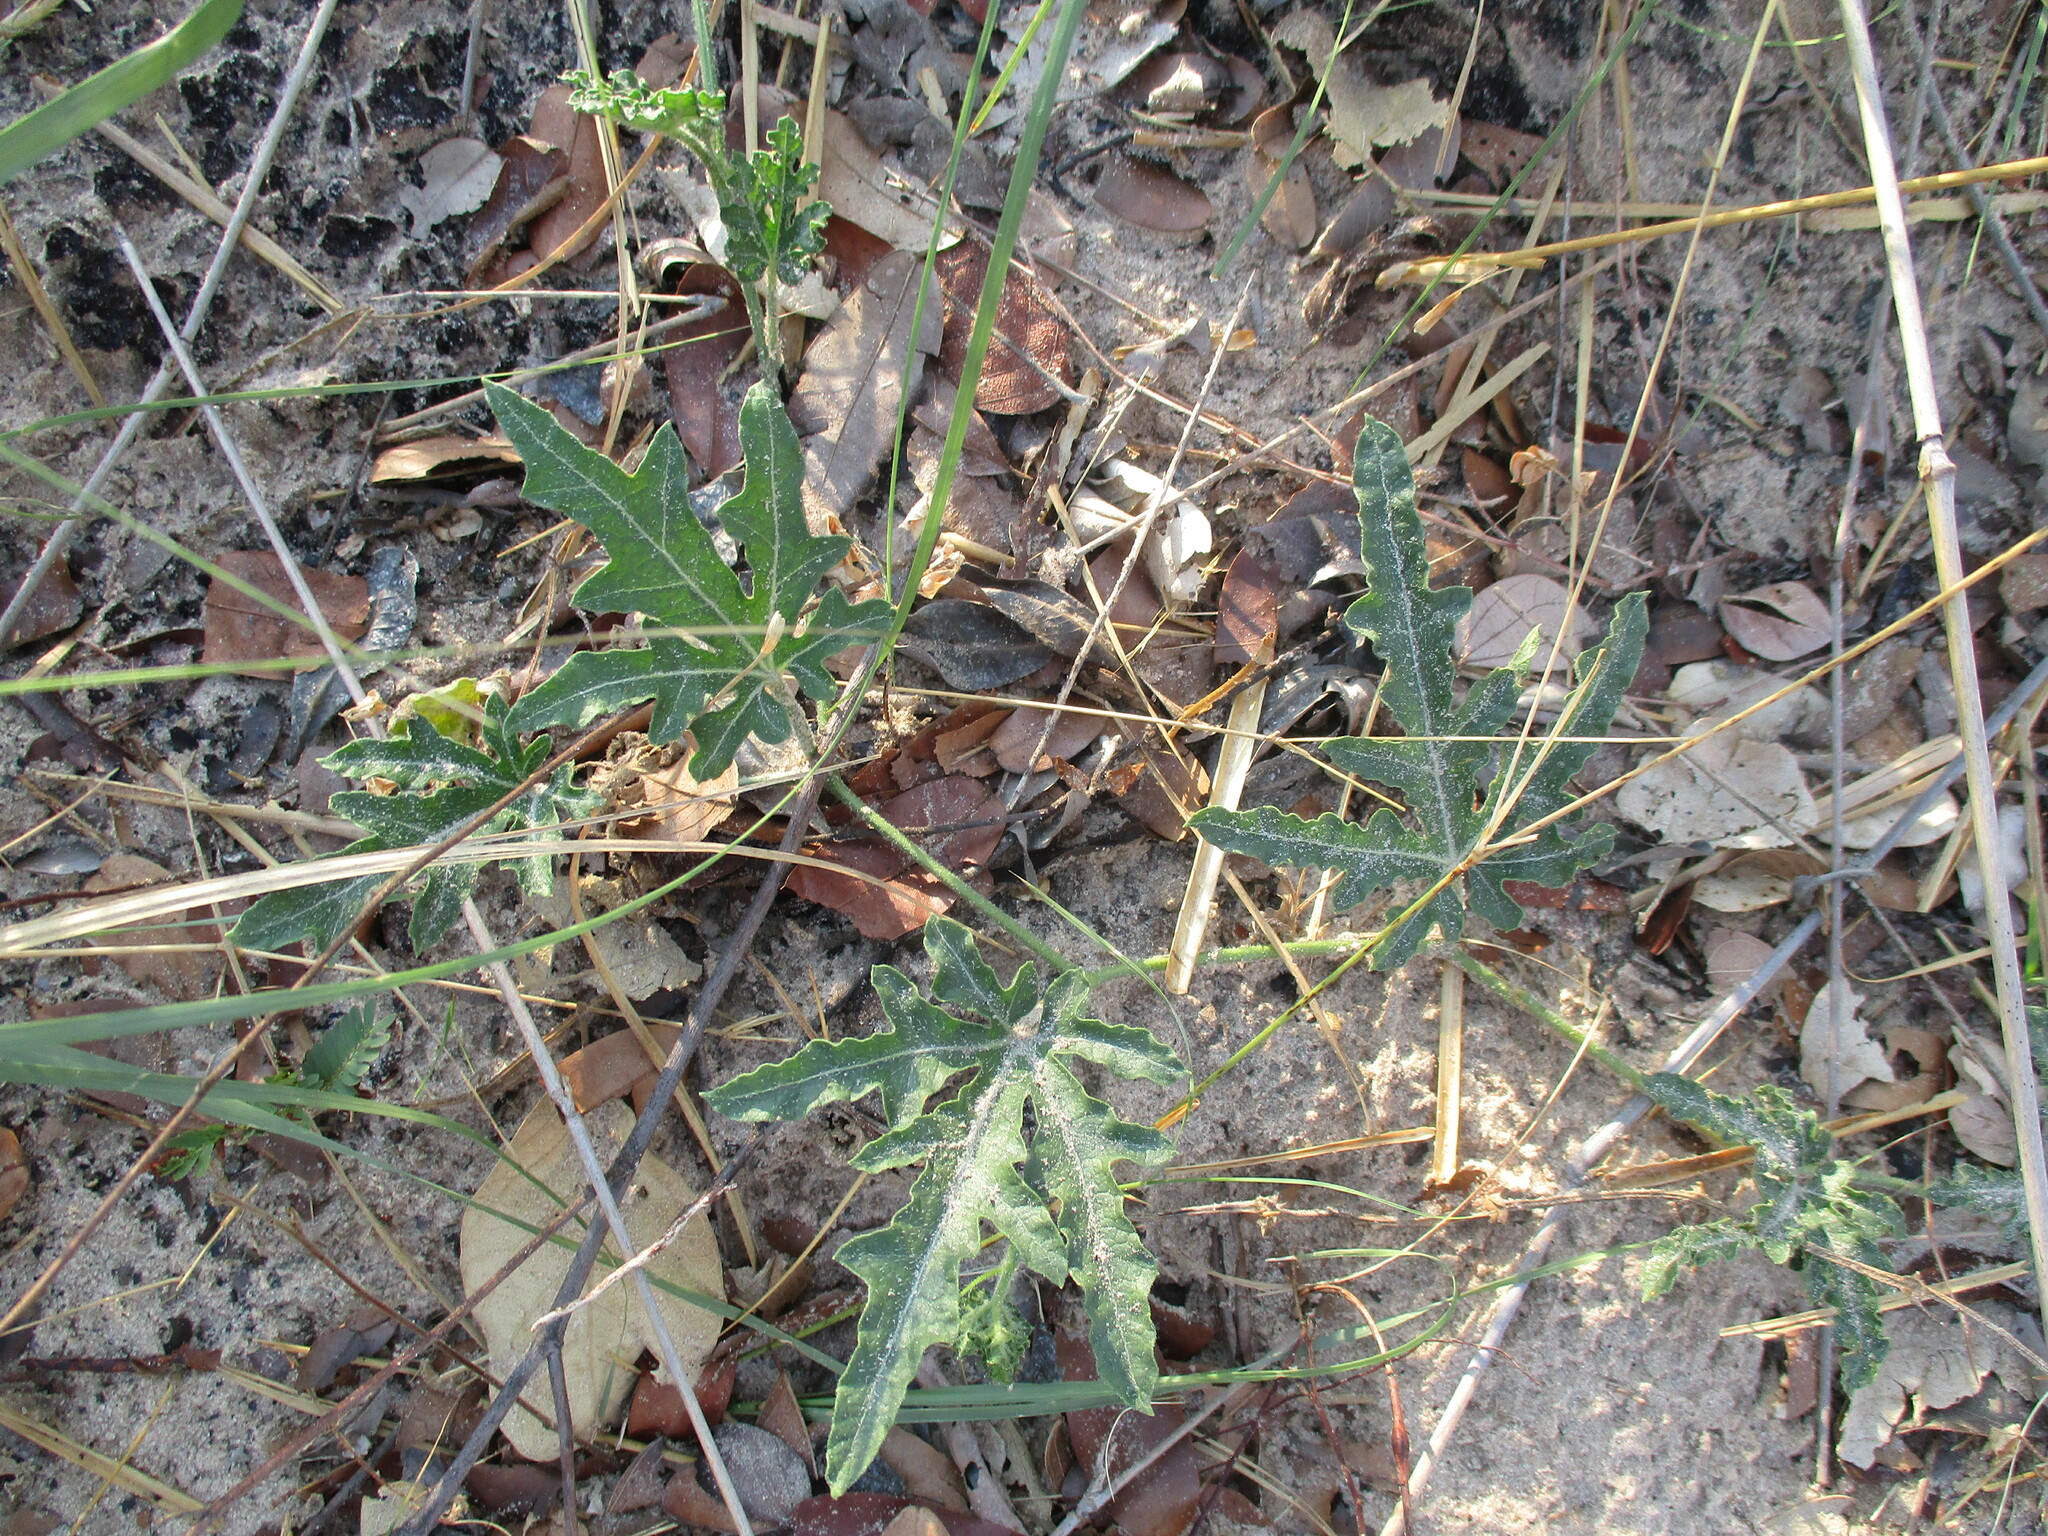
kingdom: Plantae
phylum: Tracheophyta
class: Magnoliopsida
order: Cucurbitales
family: Cucurbitaceae
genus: Citrullus
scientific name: Citrullus naudinianus
